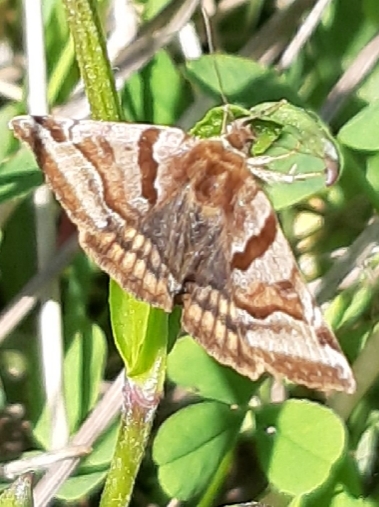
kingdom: Animalia
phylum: Arthropoda
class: Insecta
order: Lepidoptera
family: Erebidae
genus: Euclidia
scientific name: Euclidia glyphica
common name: Burnet companion
